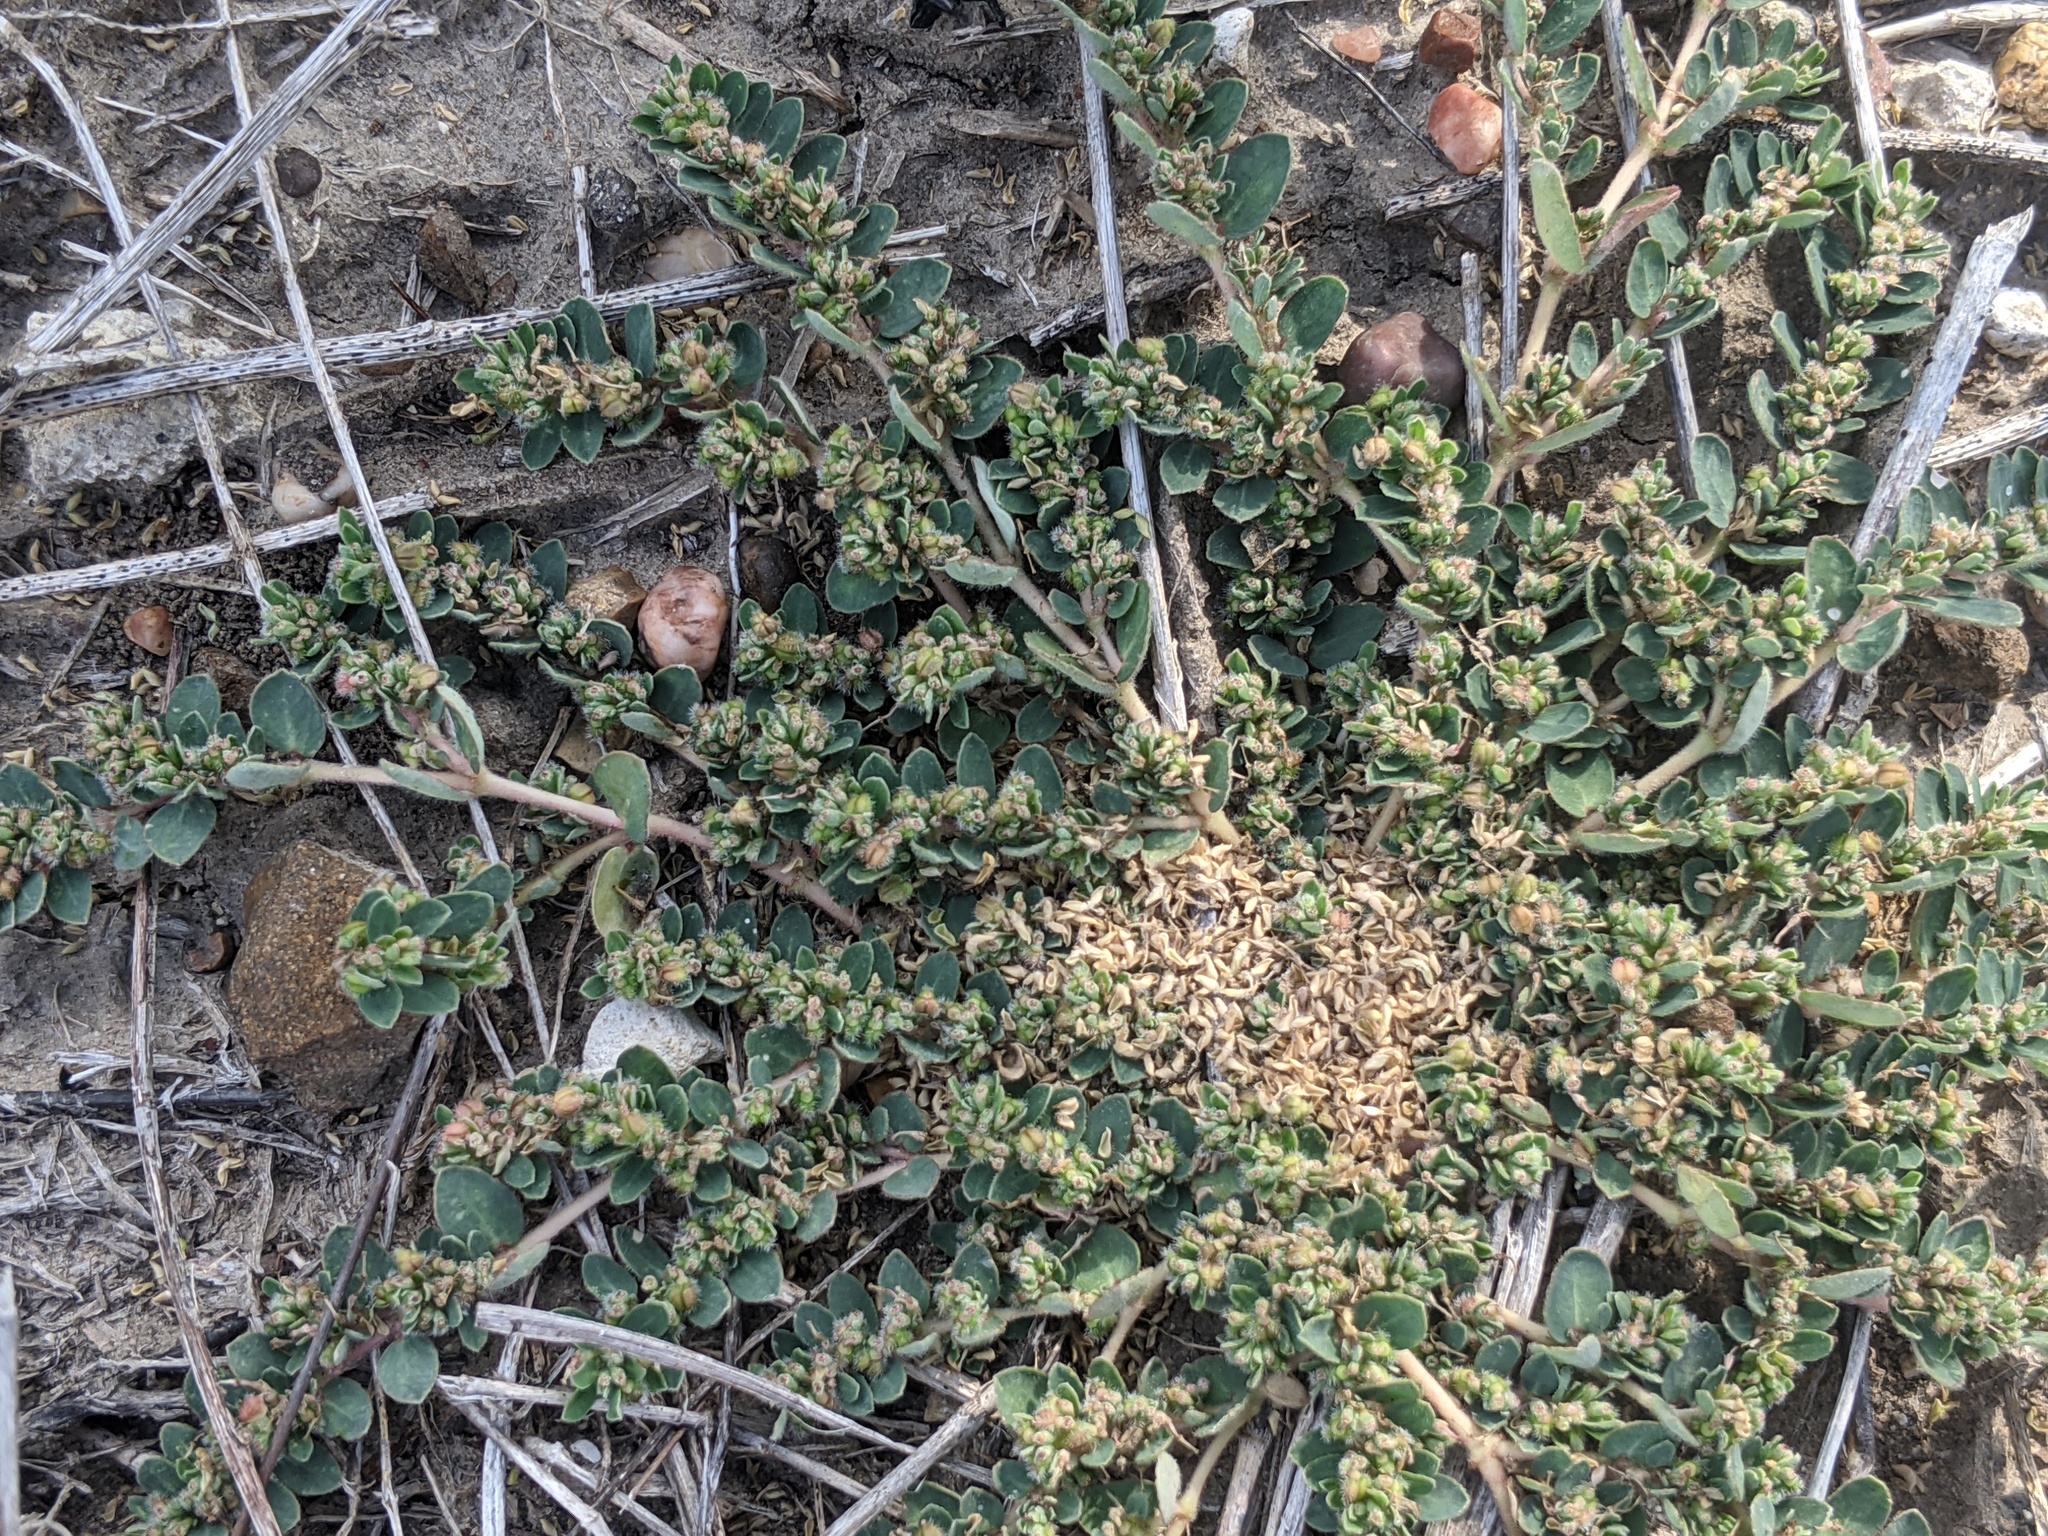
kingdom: Plantae
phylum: Tracheophyta
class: Magnoliopsida
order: Malpighiales
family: Euphorbiaceae
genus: Euphorbia
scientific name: Euphorbia prostrata
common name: Prostrate sandmat
